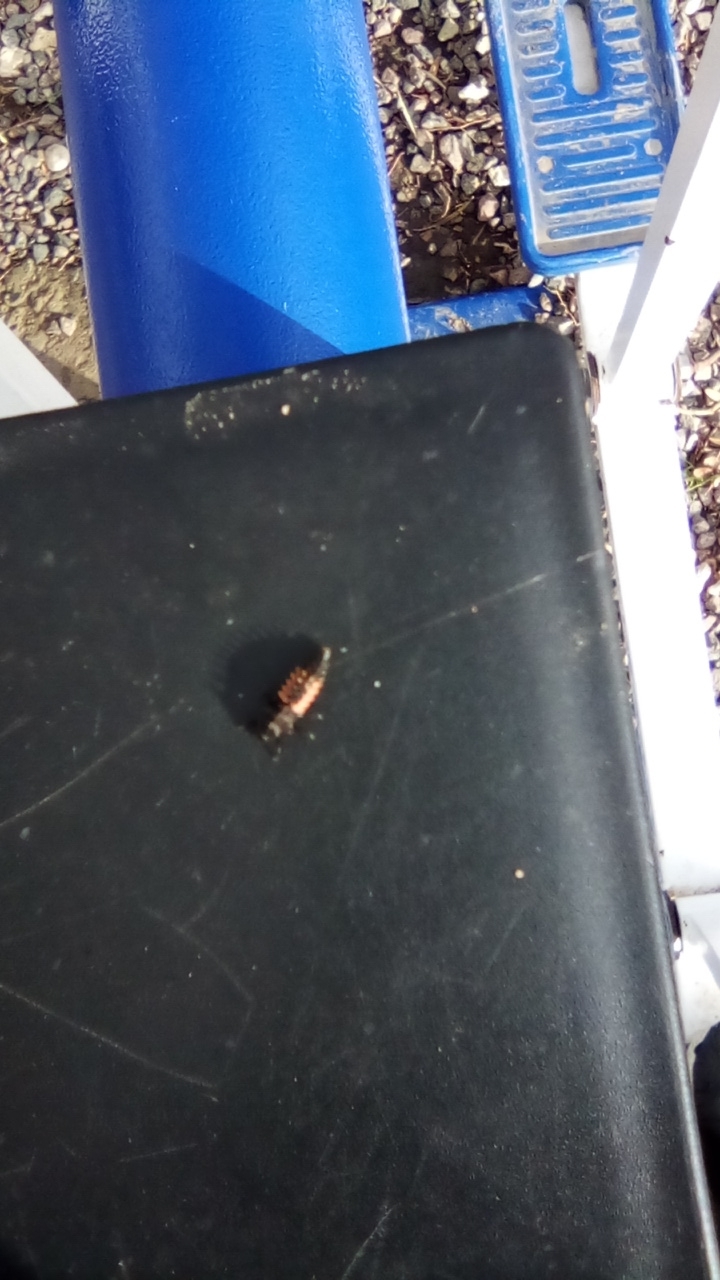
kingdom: Animalia
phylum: Arthropoda
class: Insecta
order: Coleoptera
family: Coccinellidae
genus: Harmonia
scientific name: Harmonia axyridis
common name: Harlequin ladybird
